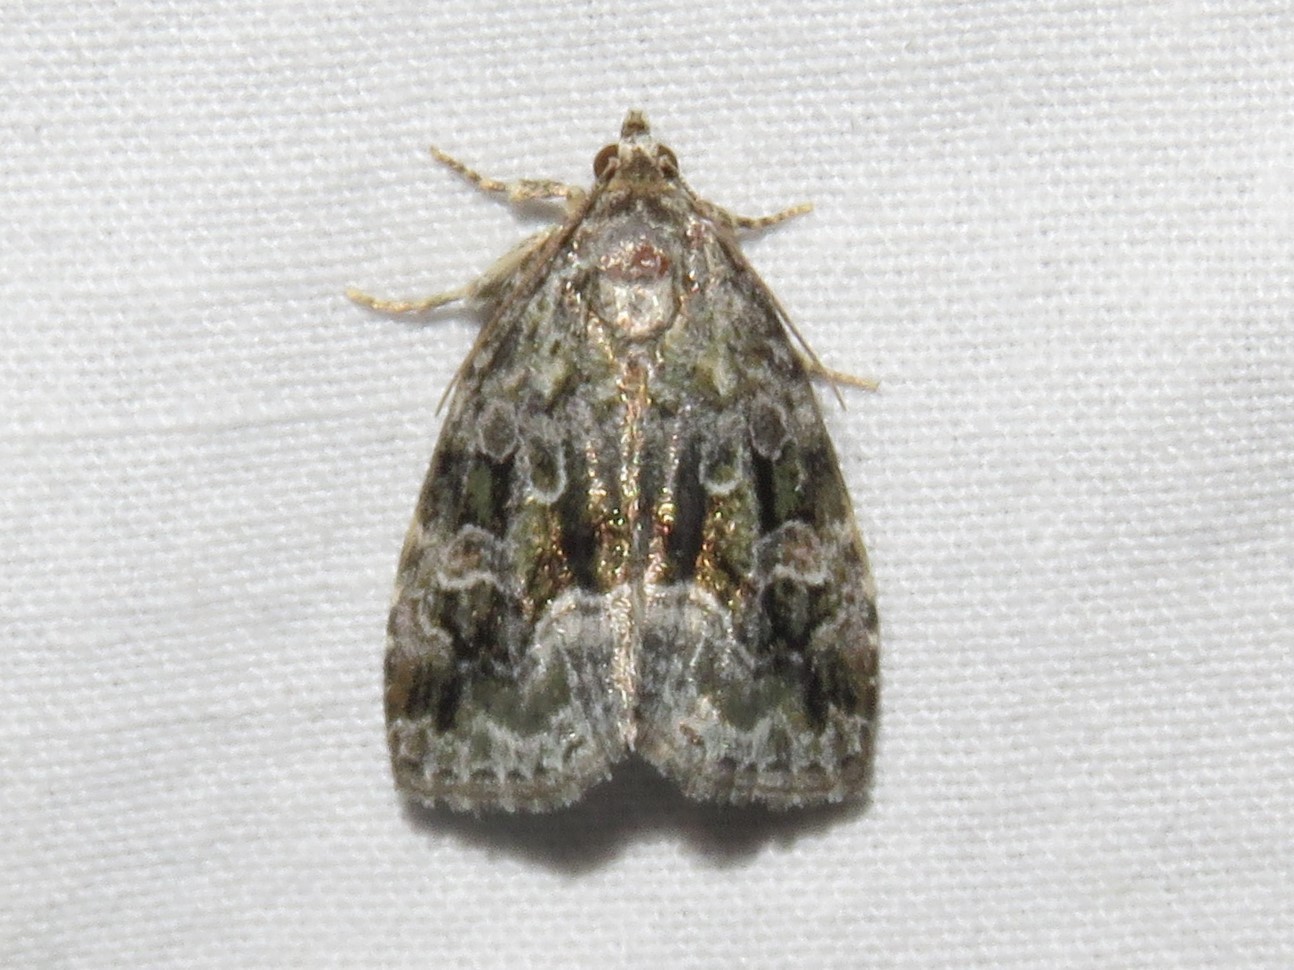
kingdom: Animalia
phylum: Arthropoda
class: Insecta
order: Lepidoptera
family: Noctuidae
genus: Protodeltote
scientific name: Protodeltote muscosula
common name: Large mossy glyph
